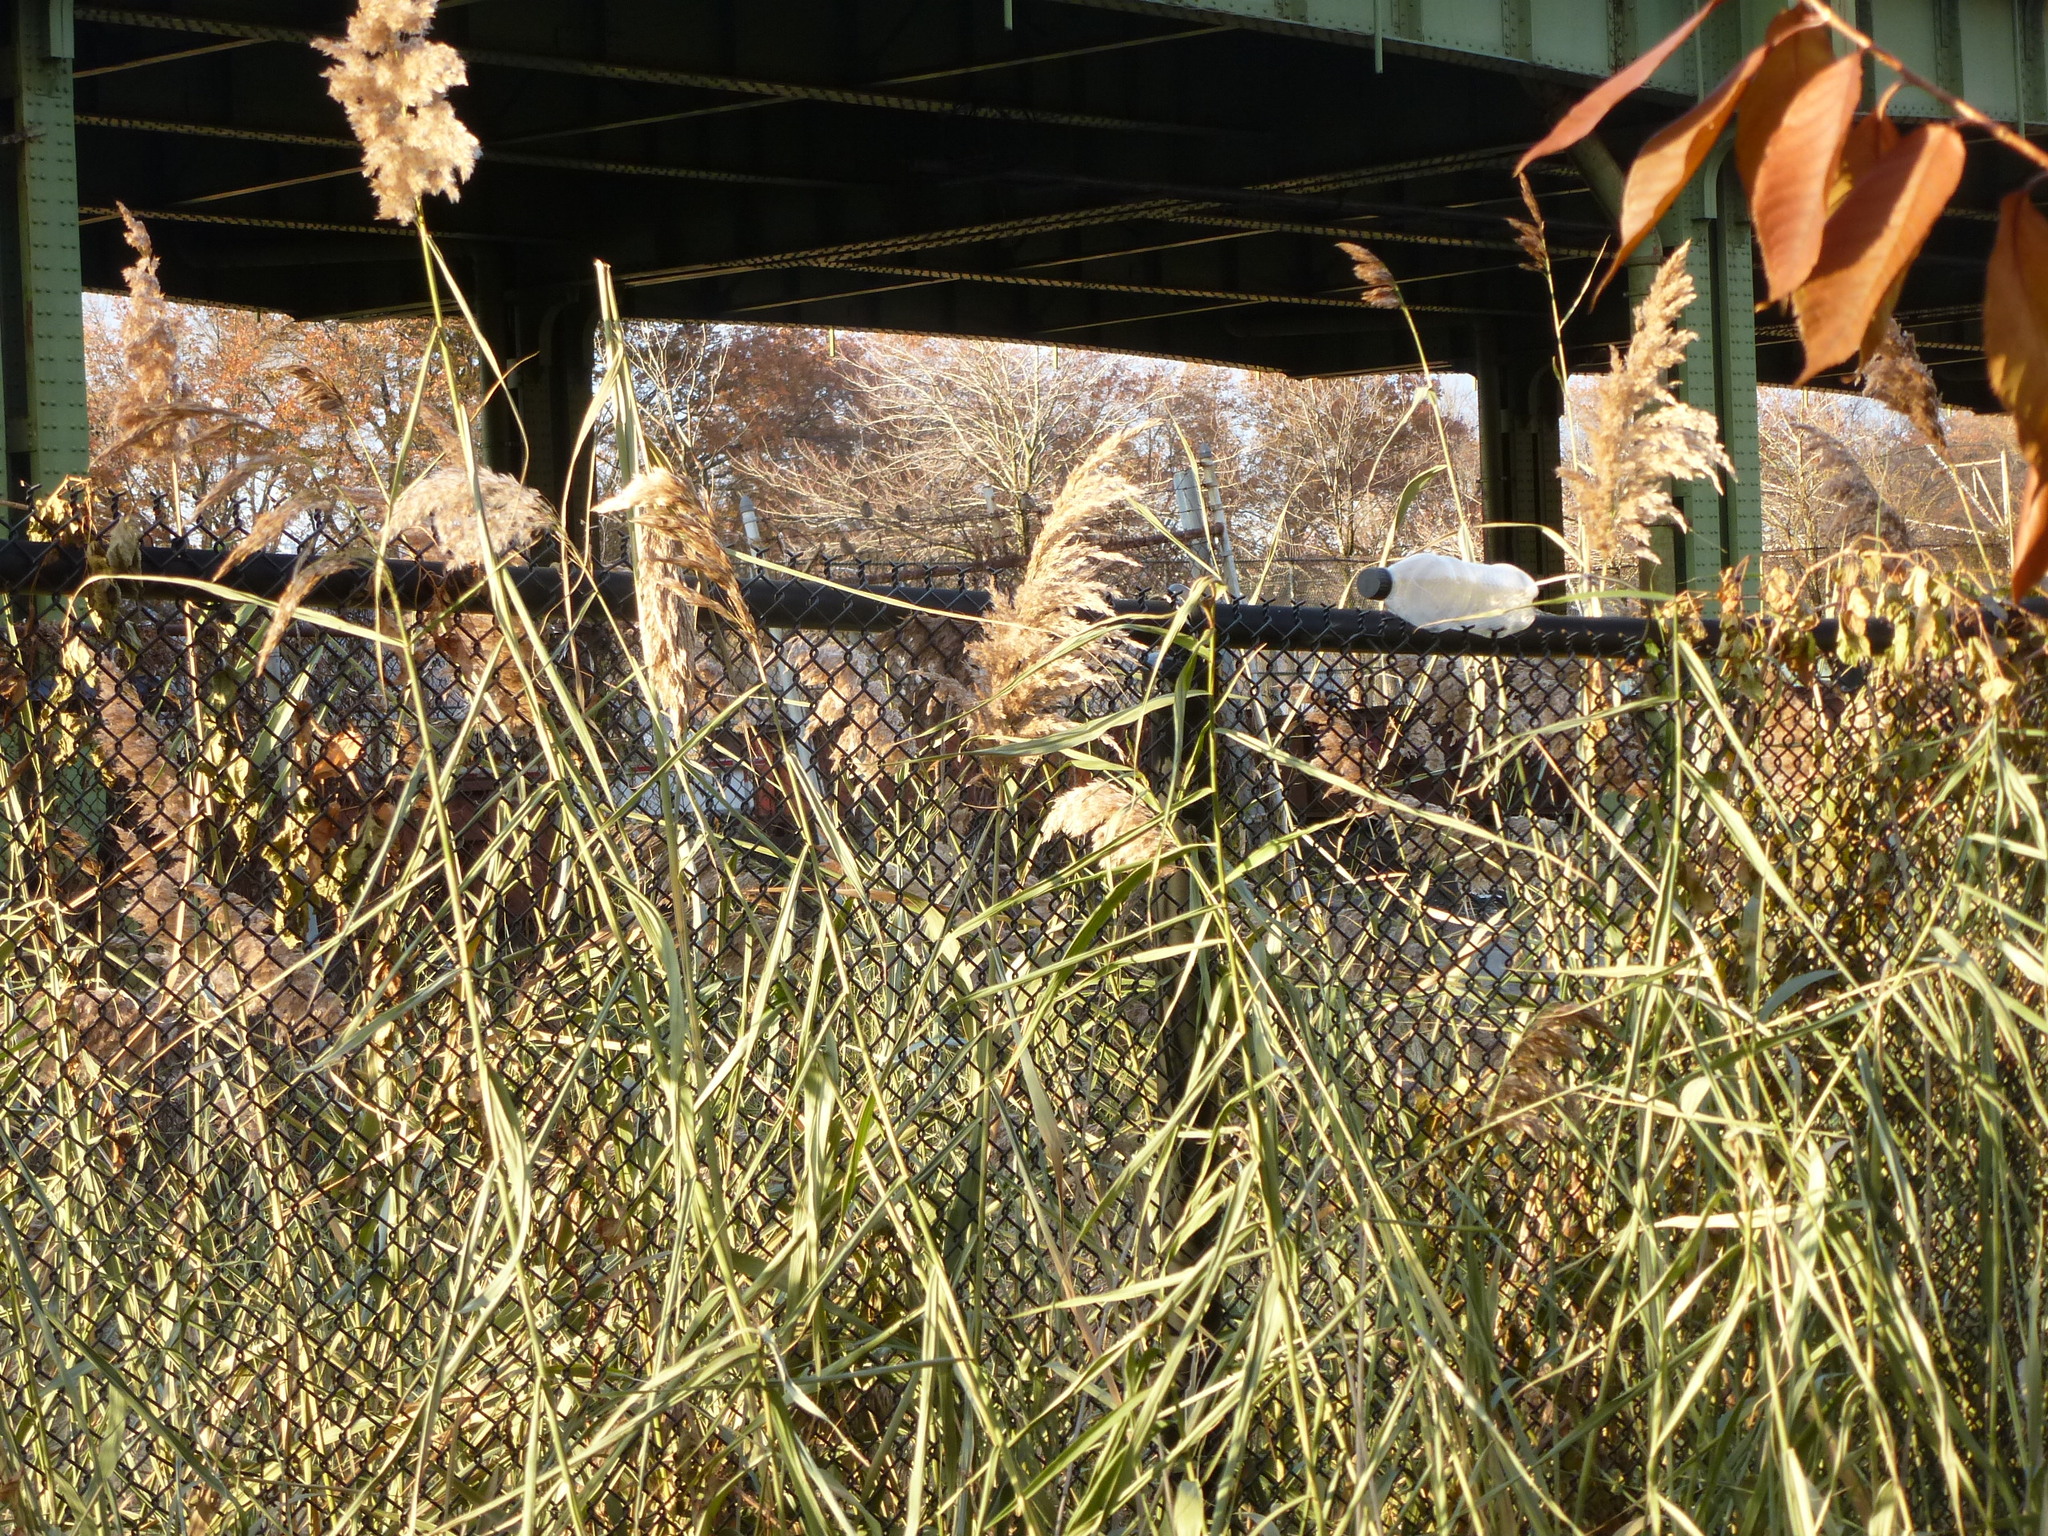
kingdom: Plantae
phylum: Tracheophyta
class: Liliopsida
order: Poales
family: Poaceae
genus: Phragmites
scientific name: Phragmites australis
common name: Common reed
